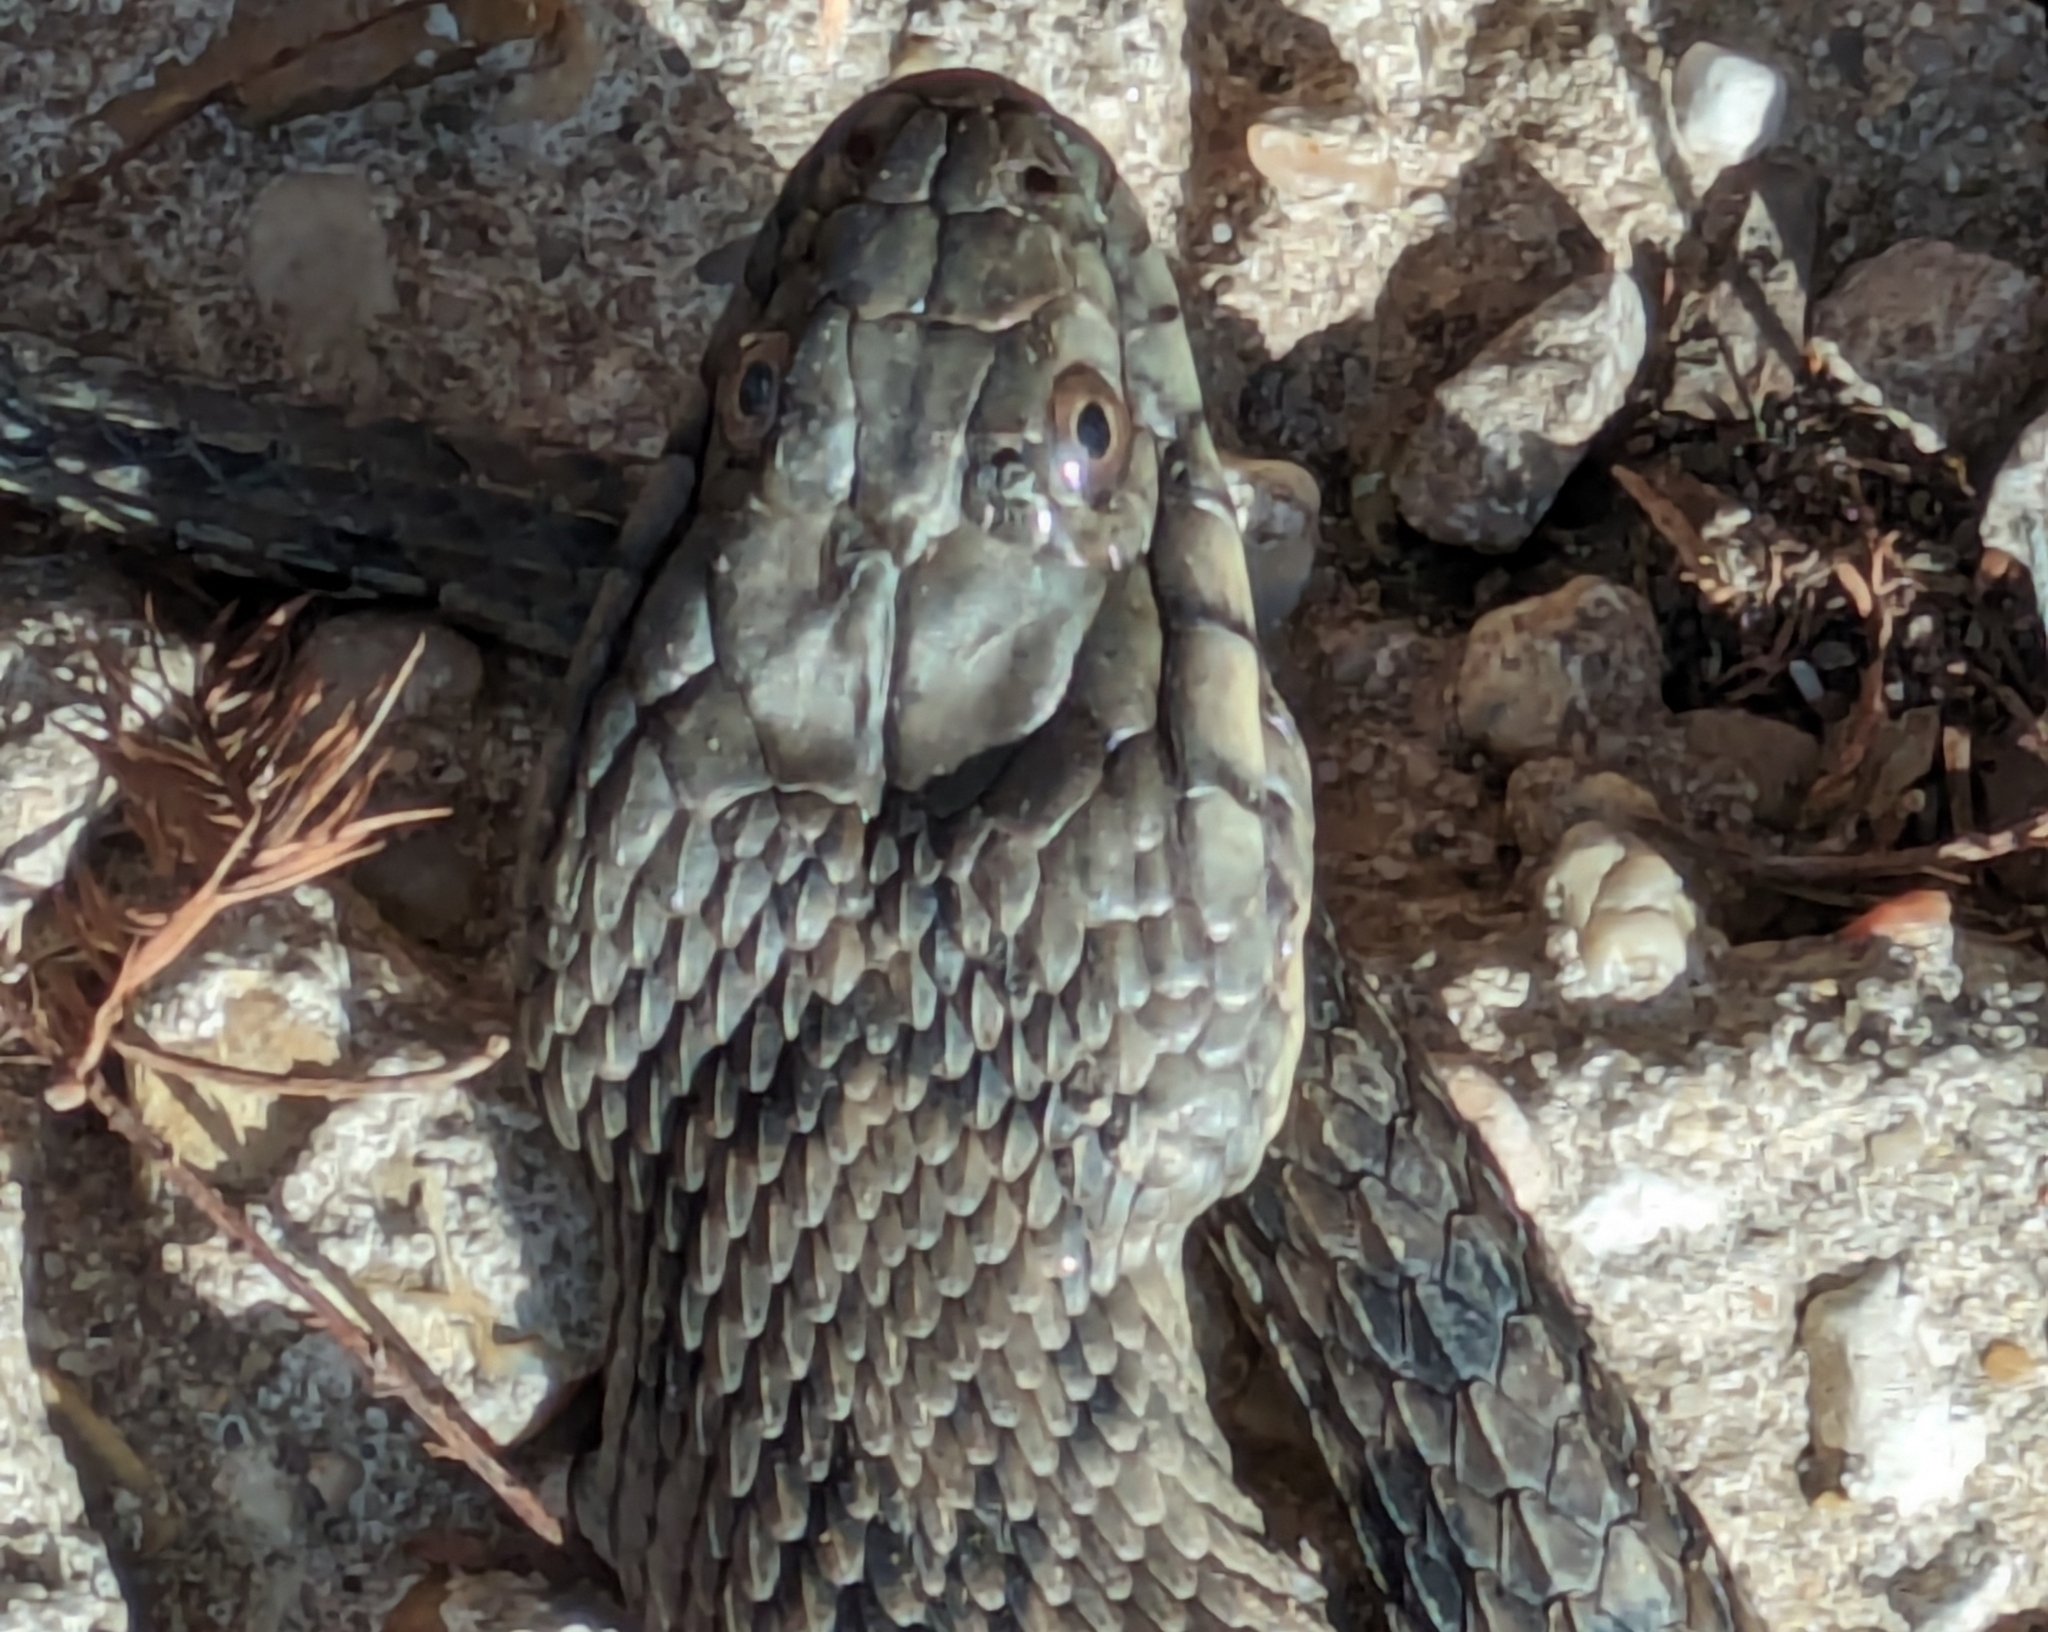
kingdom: Animalia
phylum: Chordata
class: Squamata
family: Colubridae
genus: Nerodia
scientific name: Nerodia rhombifer
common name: Diamondback water snake
